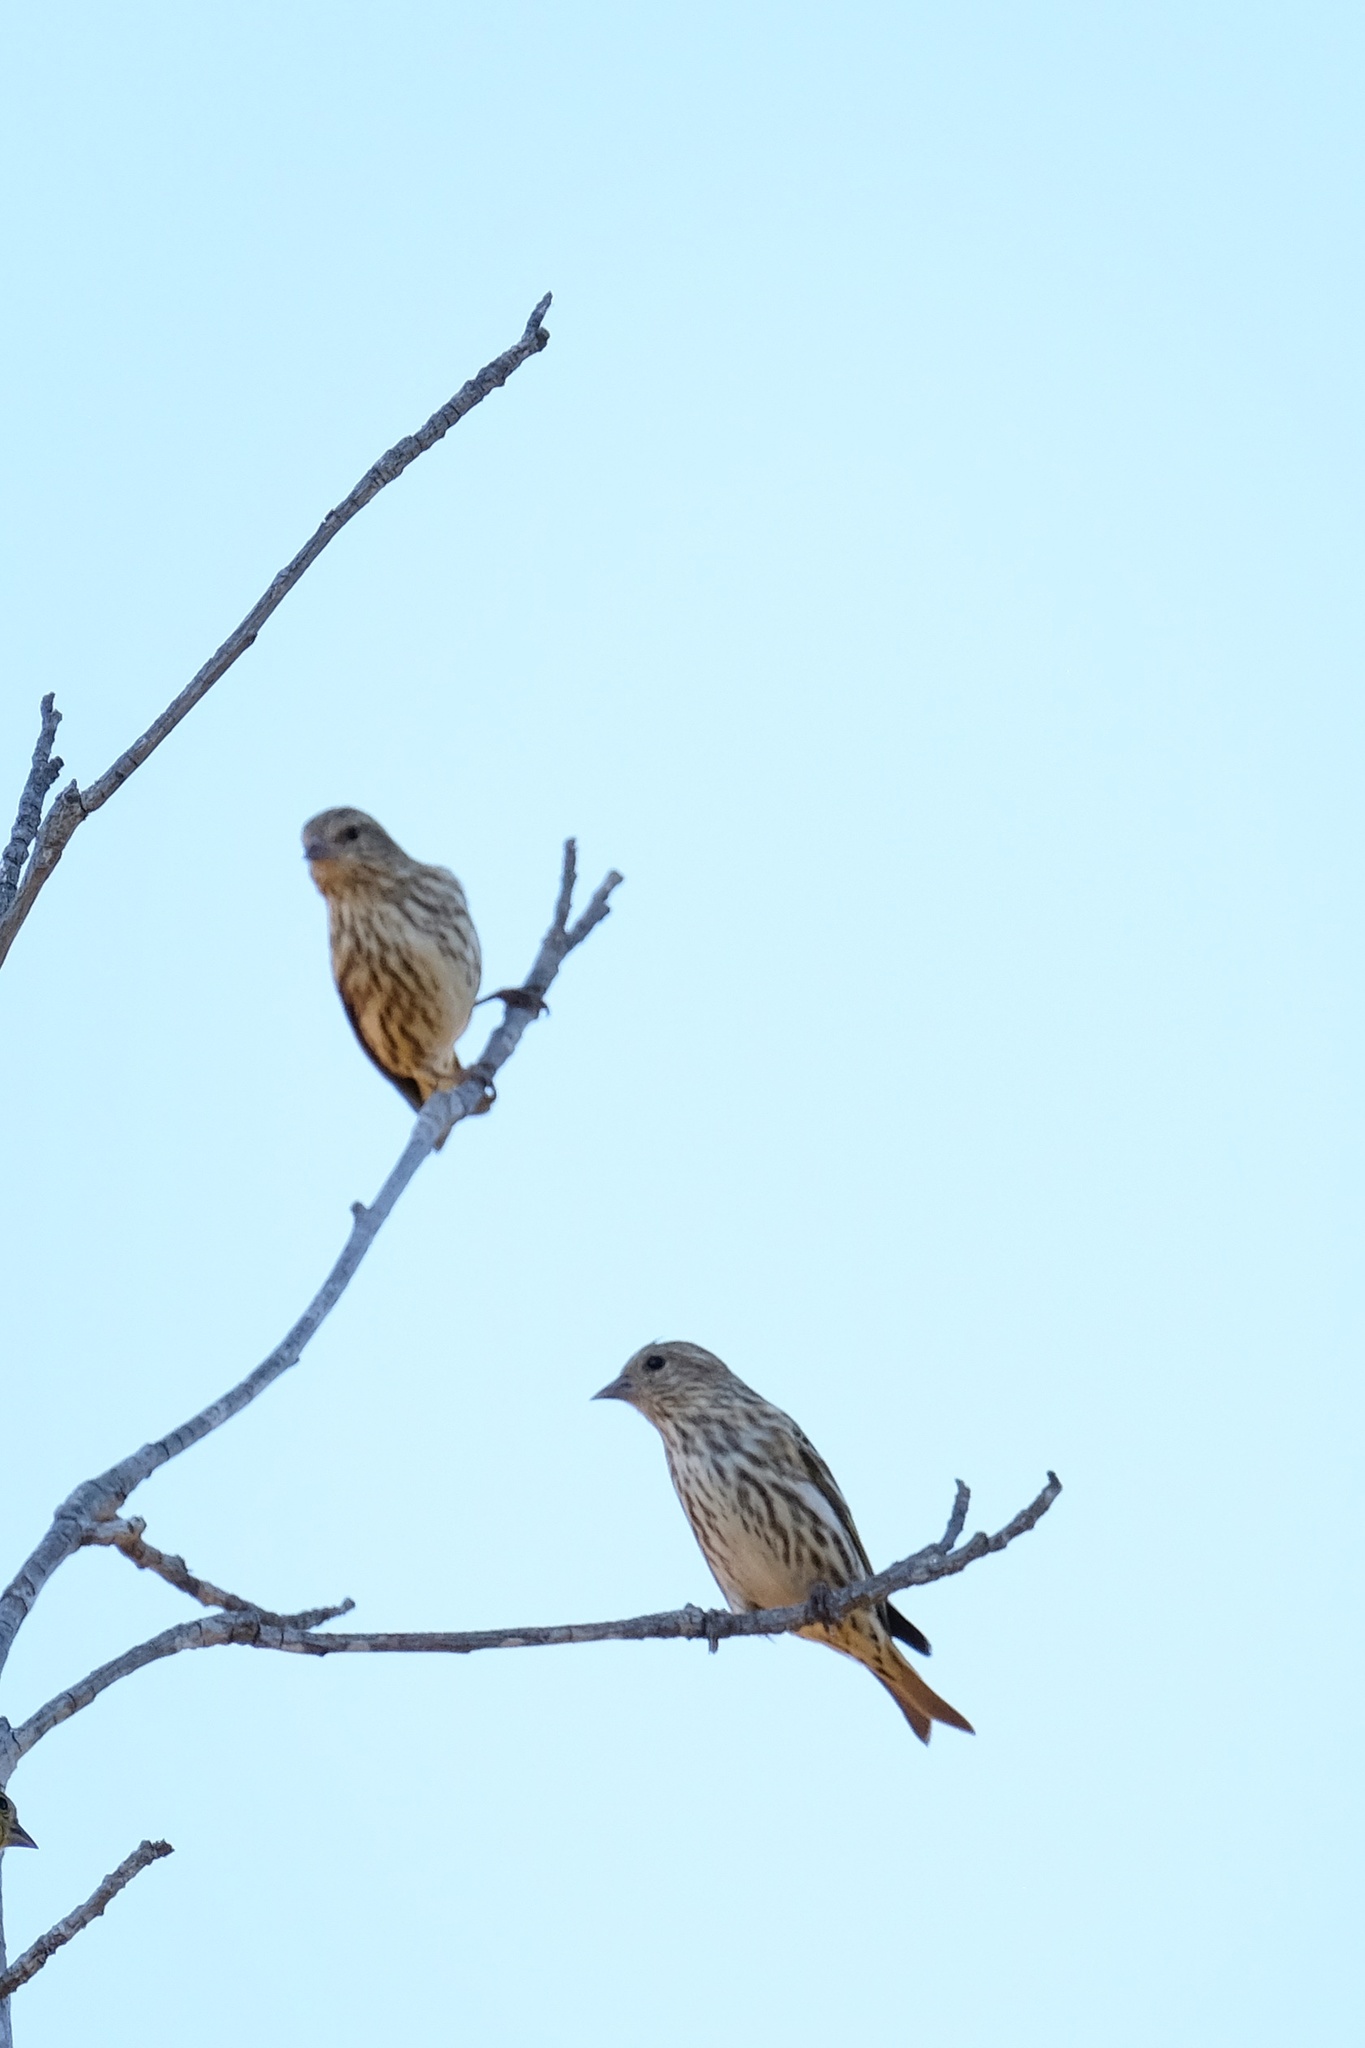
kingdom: Animalia
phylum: Chordata
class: Aves
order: Passeriformes
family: Fringillidae
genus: Spinus
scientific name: Spinus pinus
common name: Pine siskin
